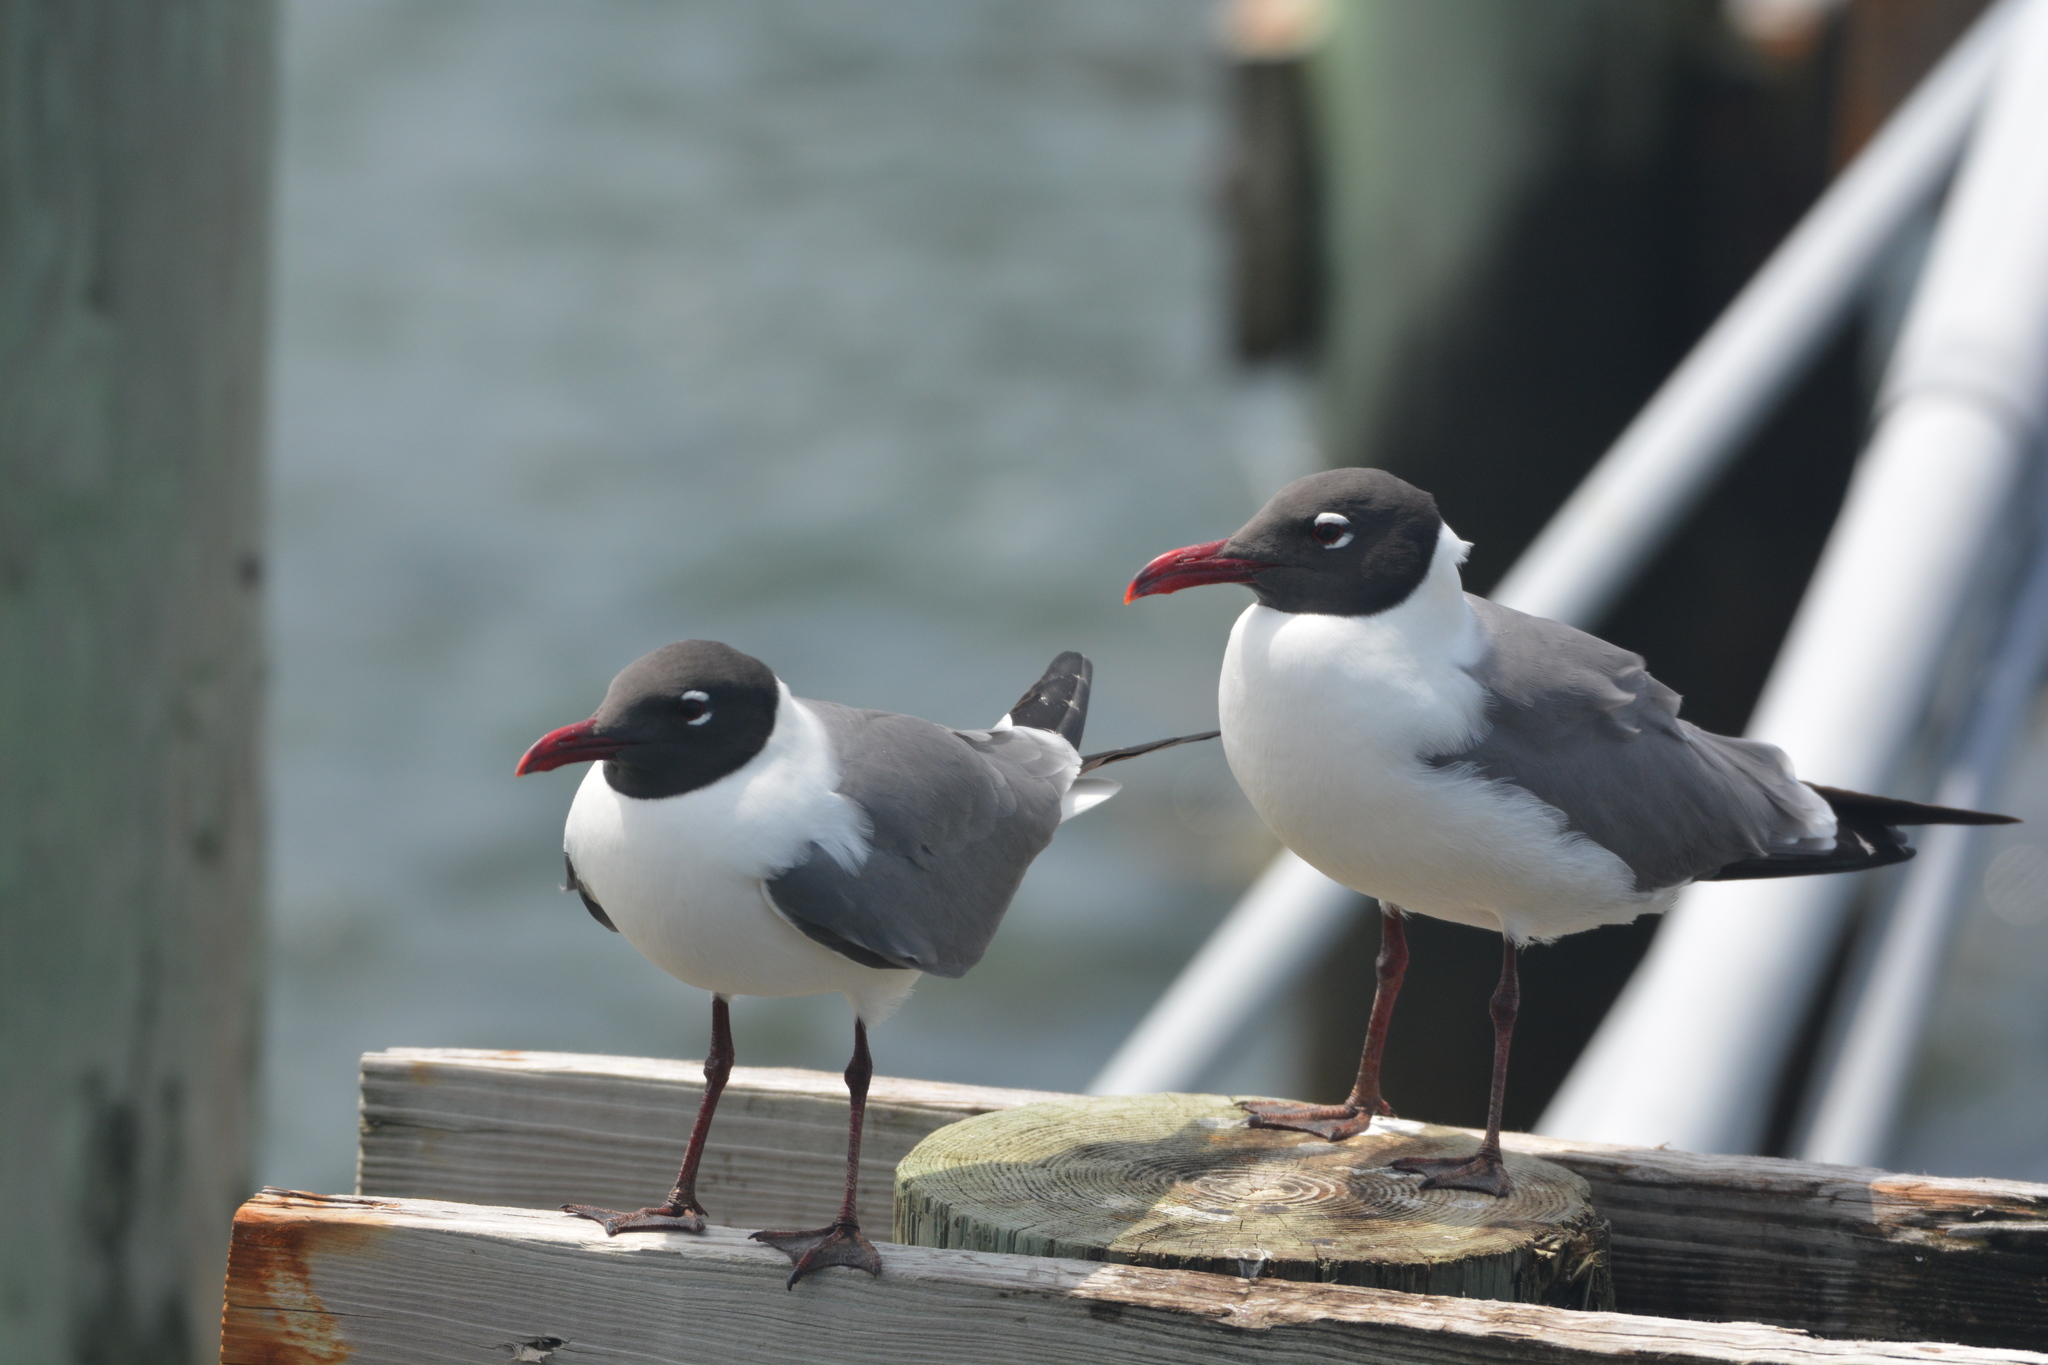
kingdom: Animalia
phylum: Chordata
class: Aves
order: Charadriiformes
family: Laridae
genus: Leucophaeus
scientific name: Leucophaeus atricilla
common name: Laughing gull
